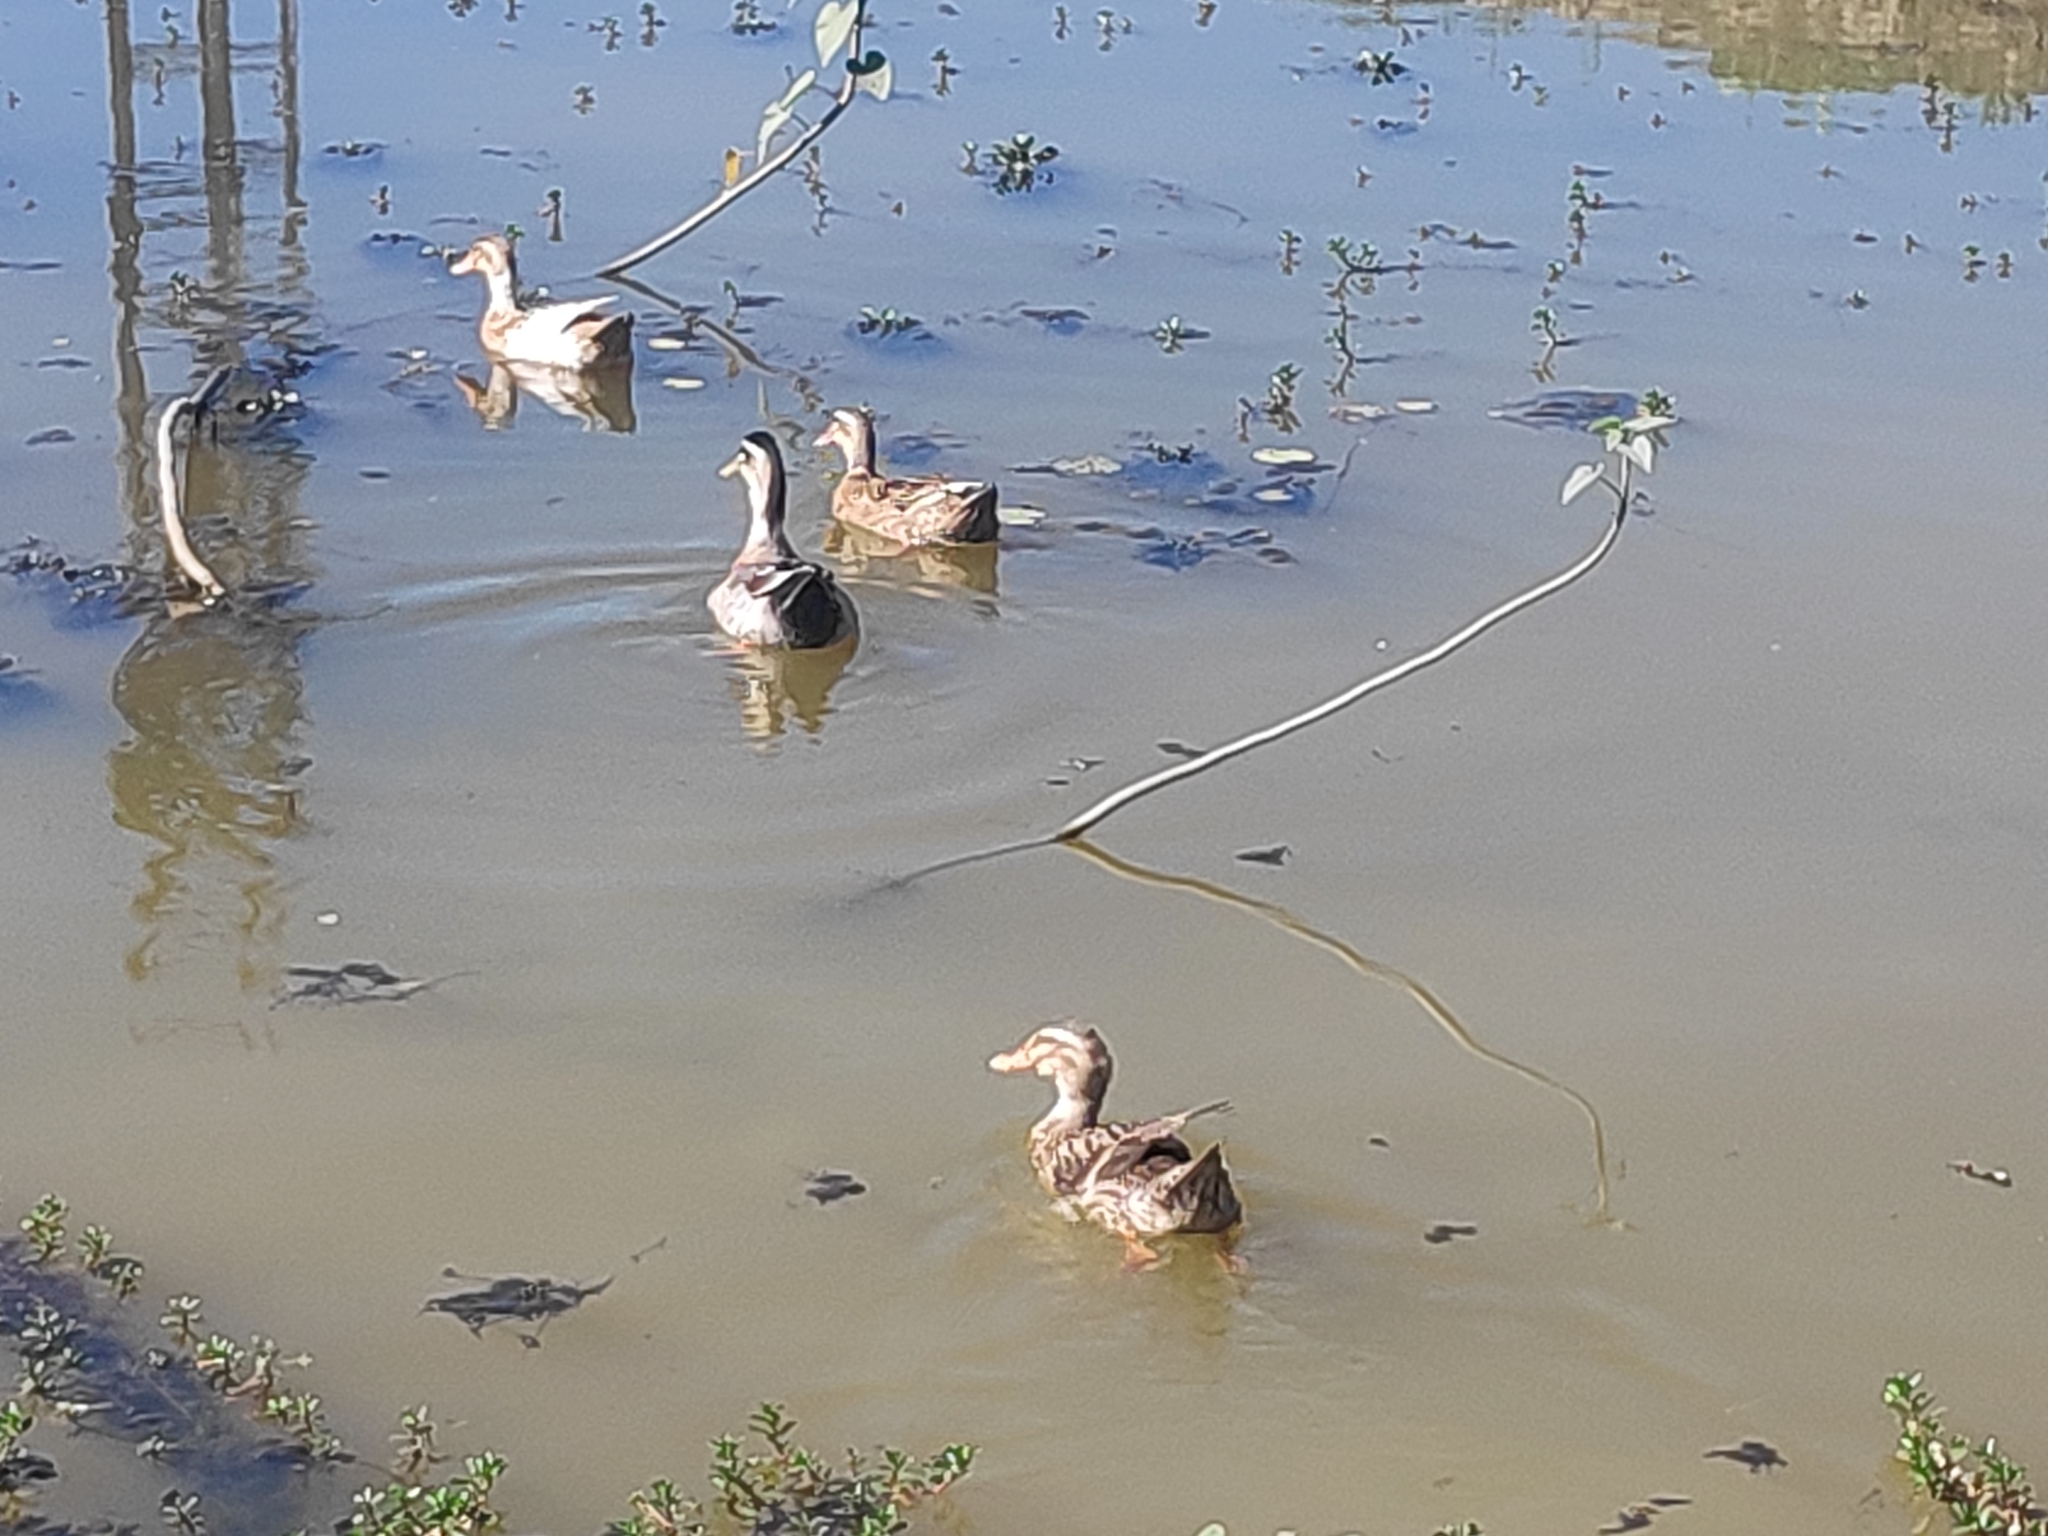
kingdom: Animalia
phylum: Chordata
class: Aves
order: Anseriformes
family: Anatidae
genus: Anas
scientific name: Anas platyrhynchos
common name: Mallard
